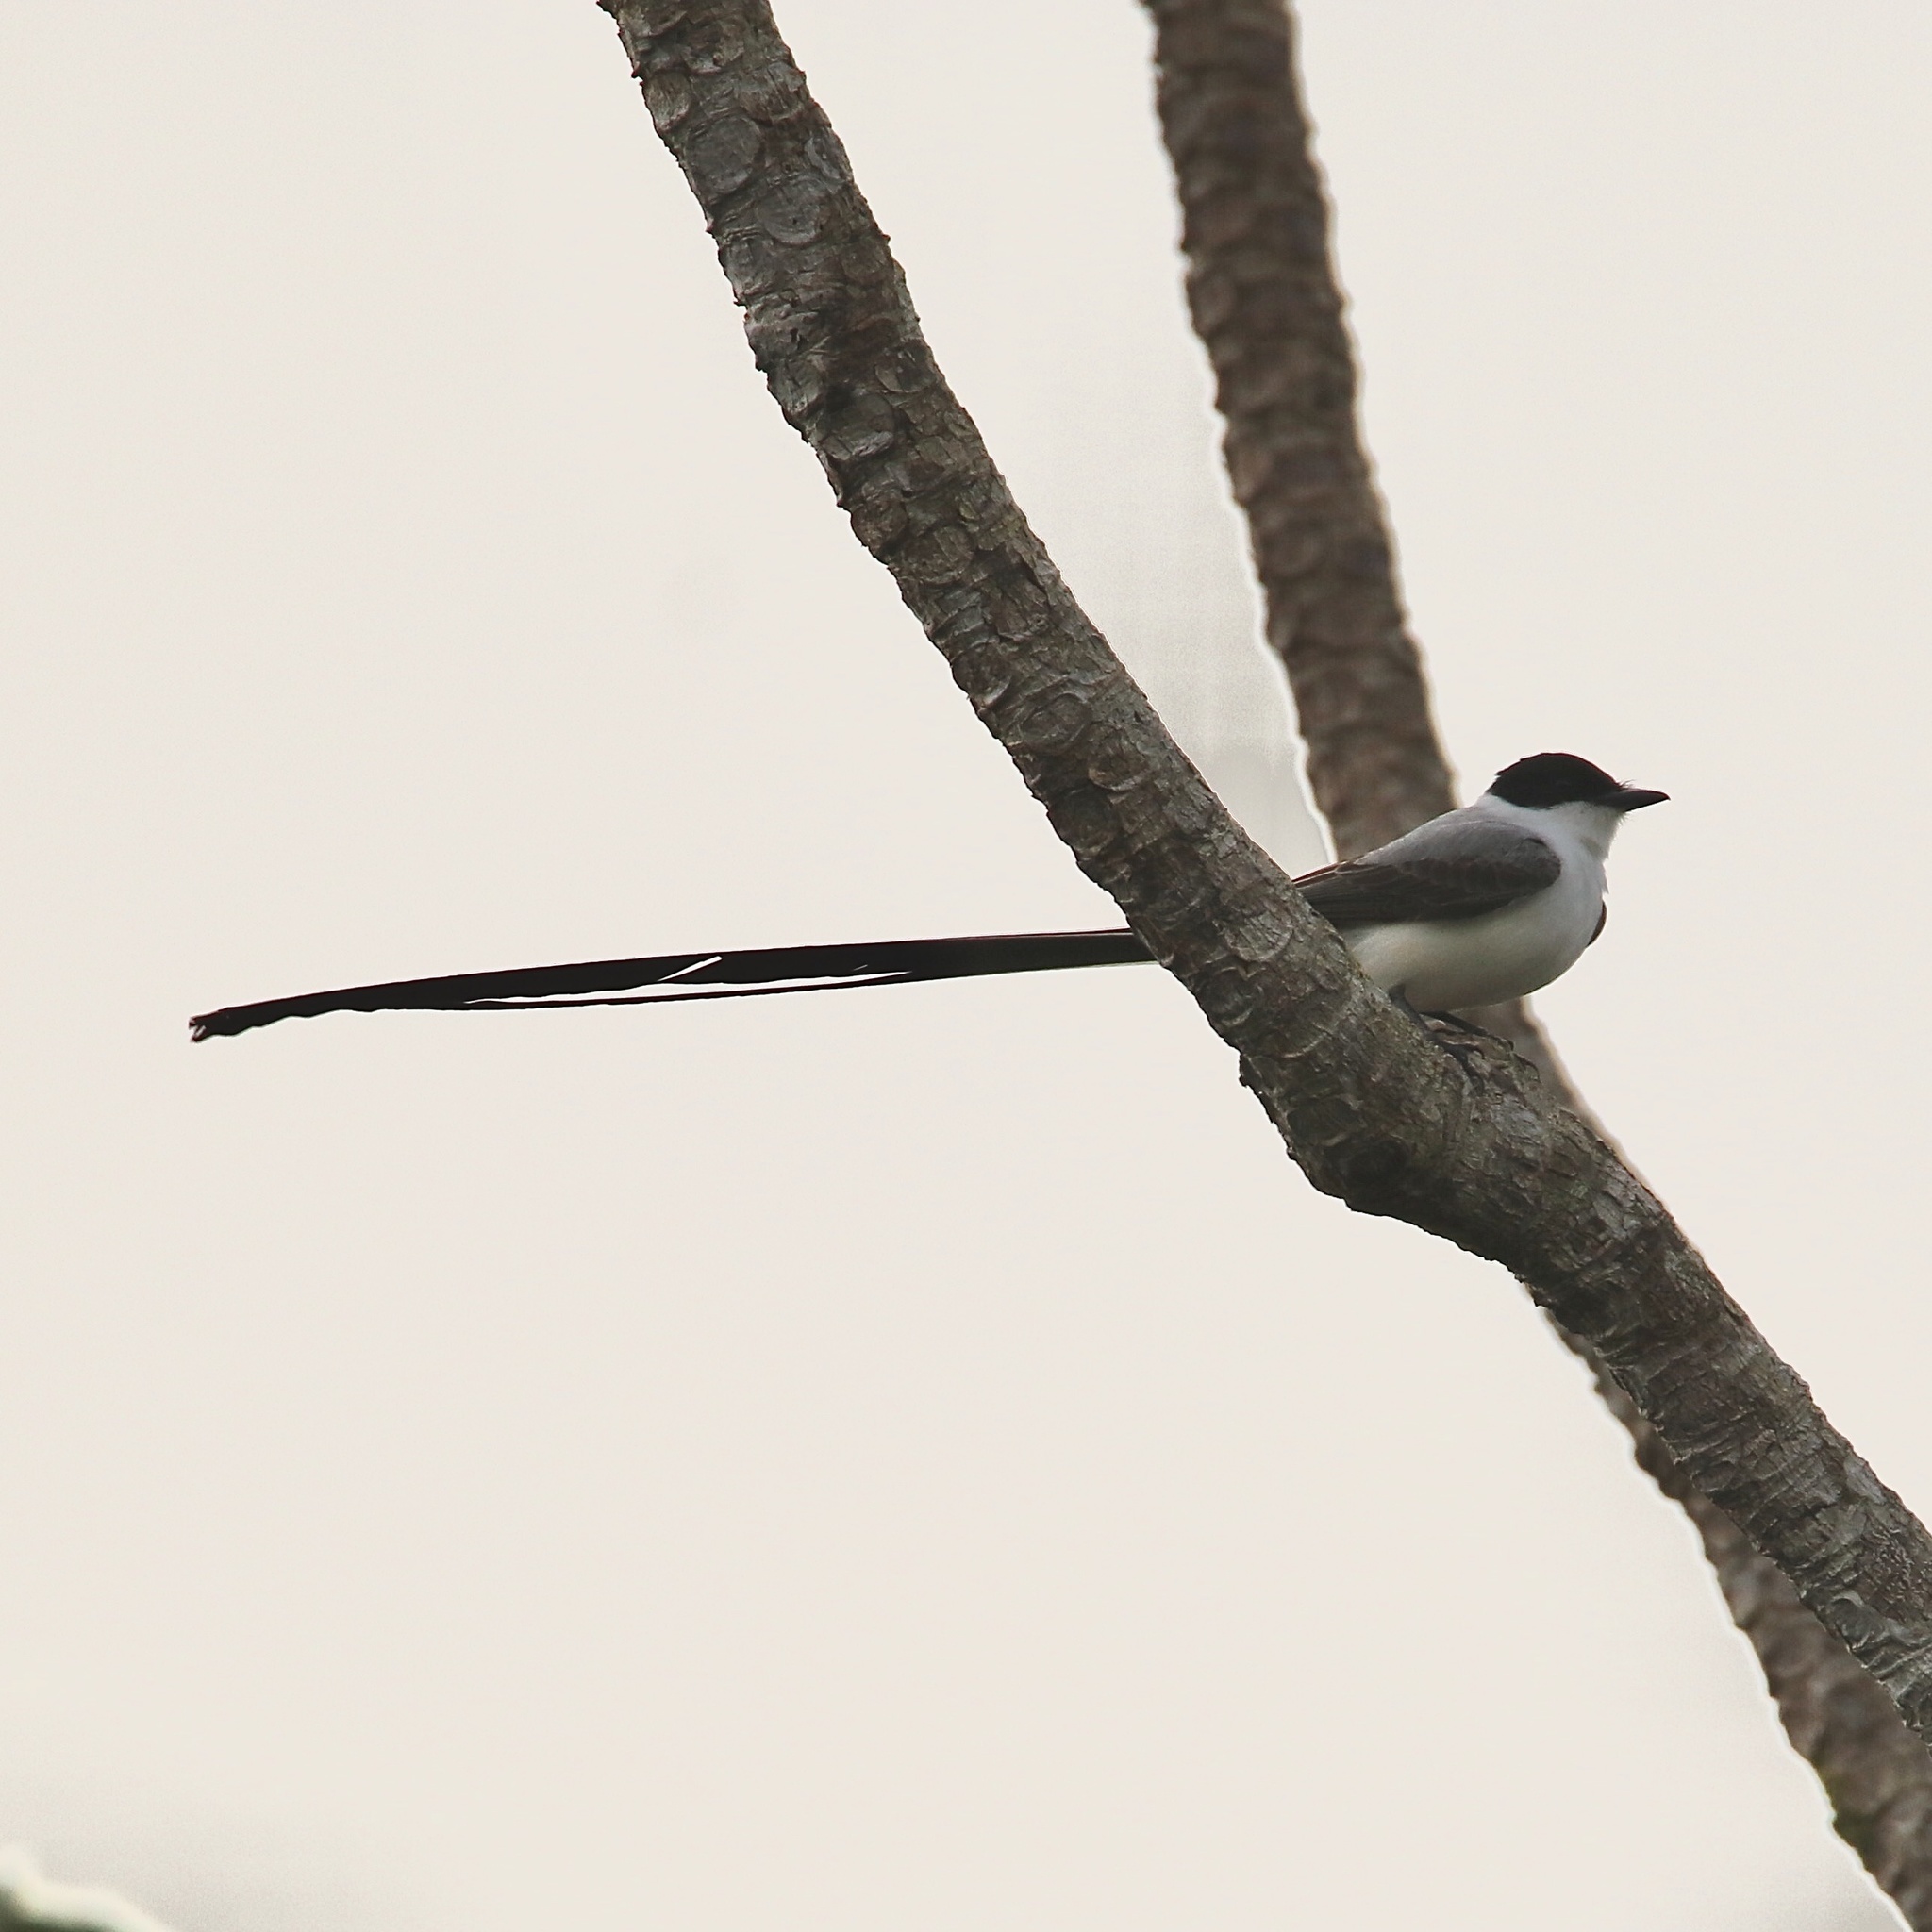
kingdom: Animalia
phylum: Chordata
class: Aves
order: Passeriformes
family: Tyrannidae
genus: Tyrannus
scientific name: Tyrannus savana
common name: Fork-tailed flycatcher
